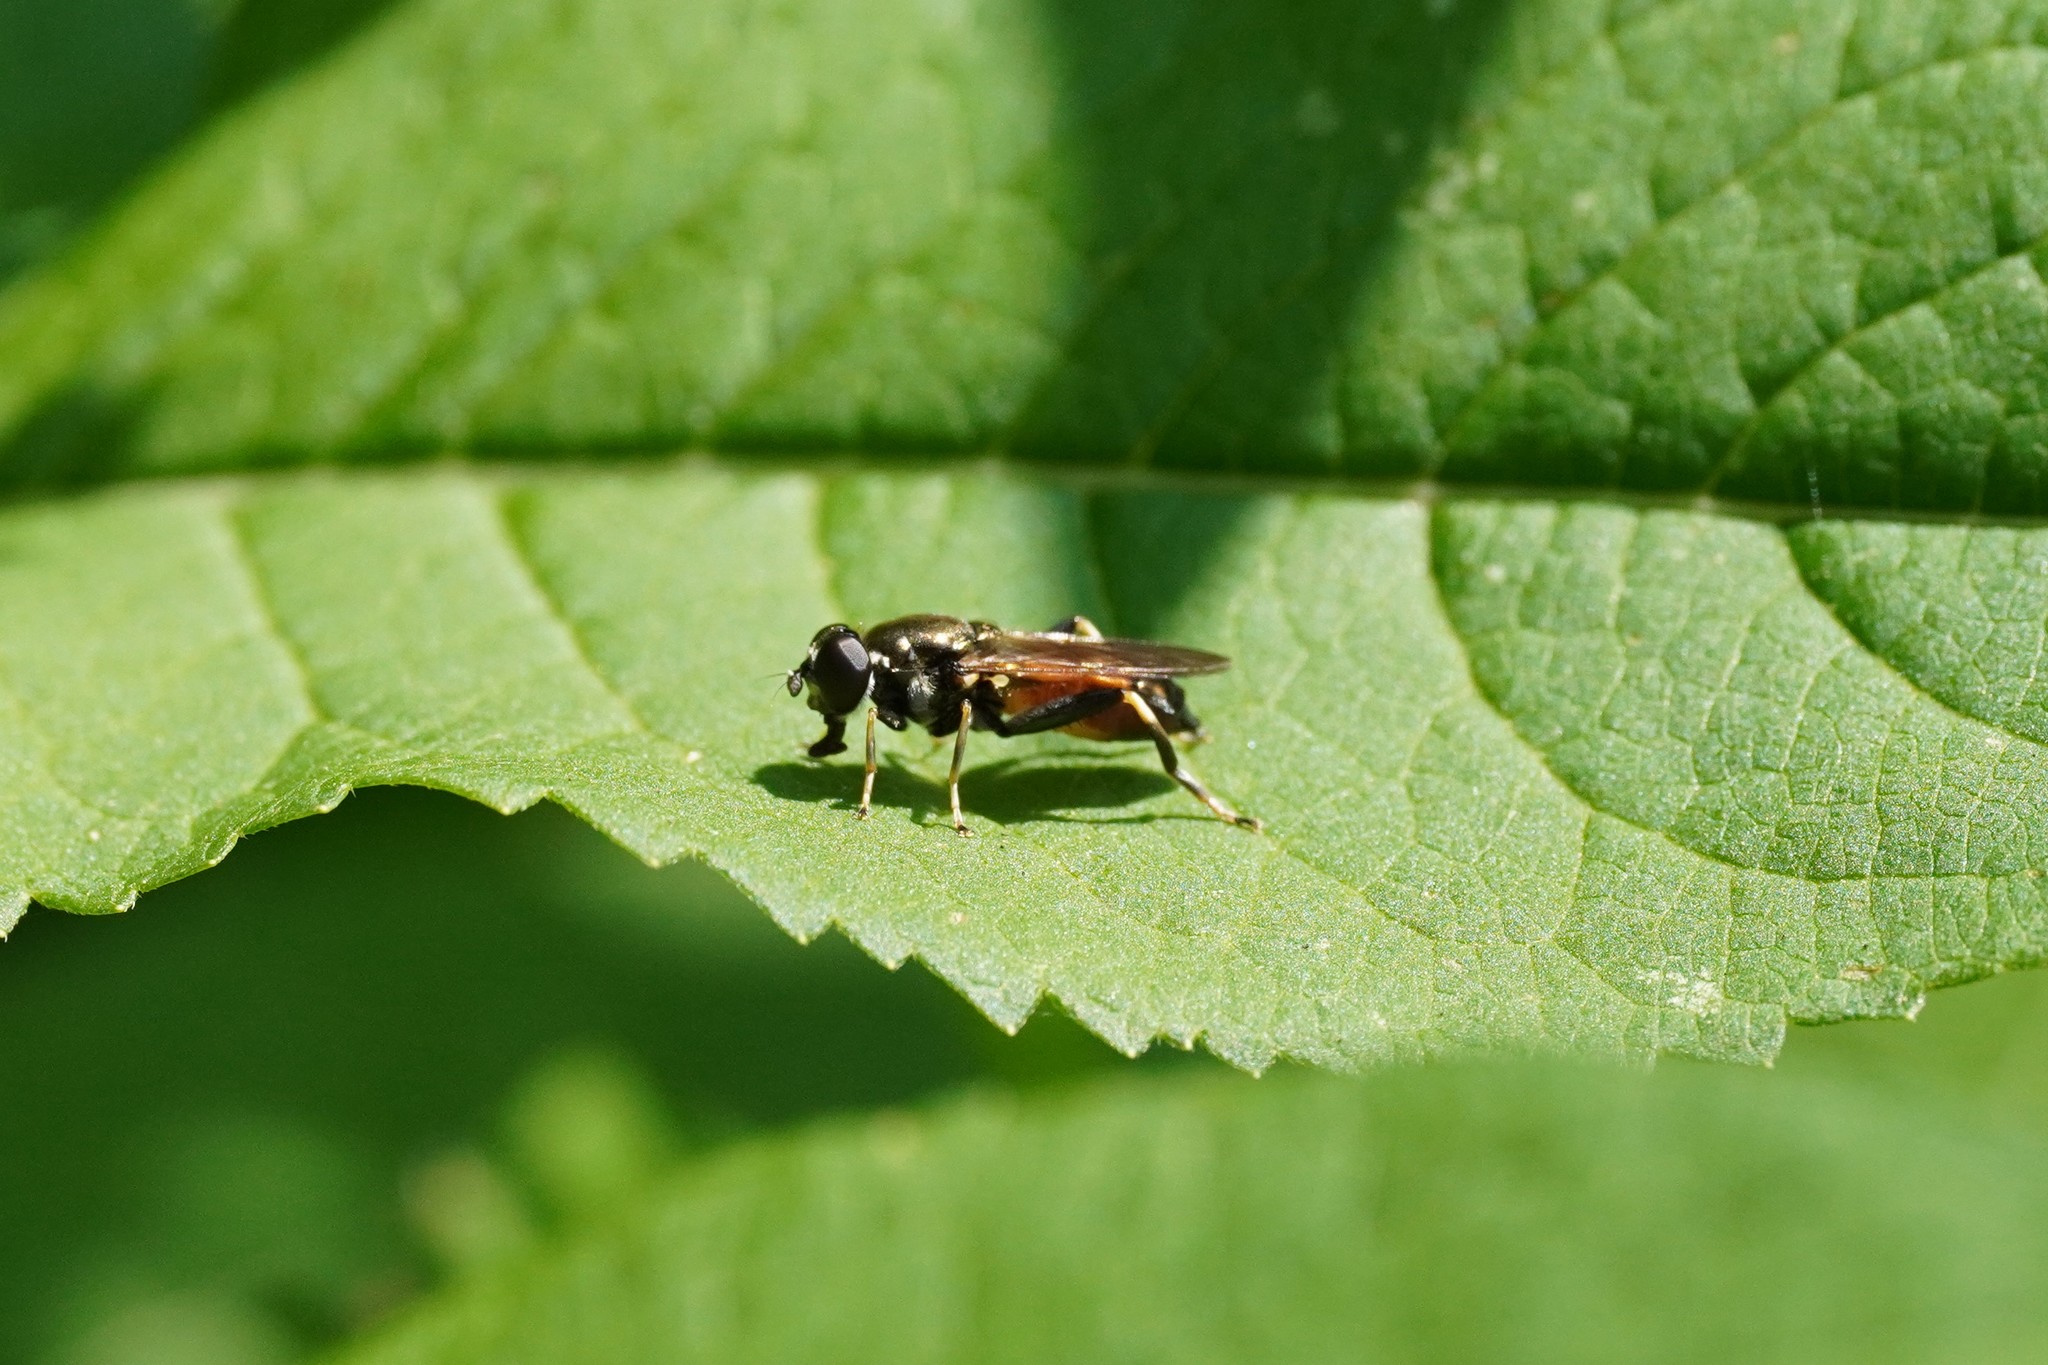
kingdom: Animalia
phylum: Arthropoda
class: Insecta
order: Diptera
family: Syrphidae
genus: Xylota
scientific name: Xylota segnis
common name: Brown-toed forest fly
